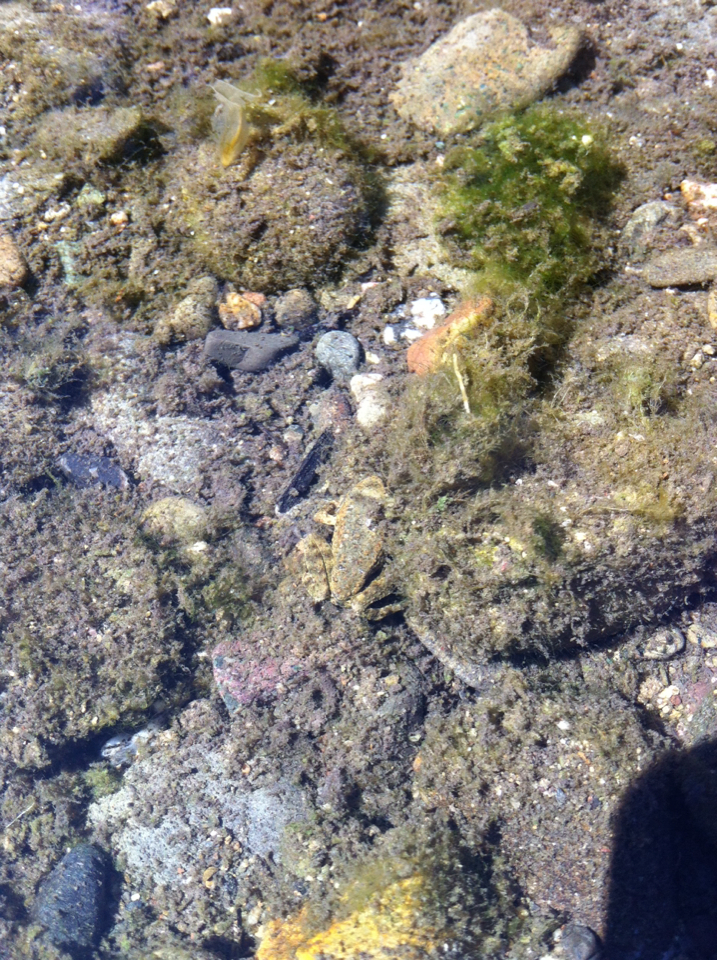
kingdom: Animalia
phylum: Chordata
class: Amphibia
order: Anura
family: Ranidae
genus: Rana
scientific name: Rana boylii
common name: Foothill yellow-legged frog
